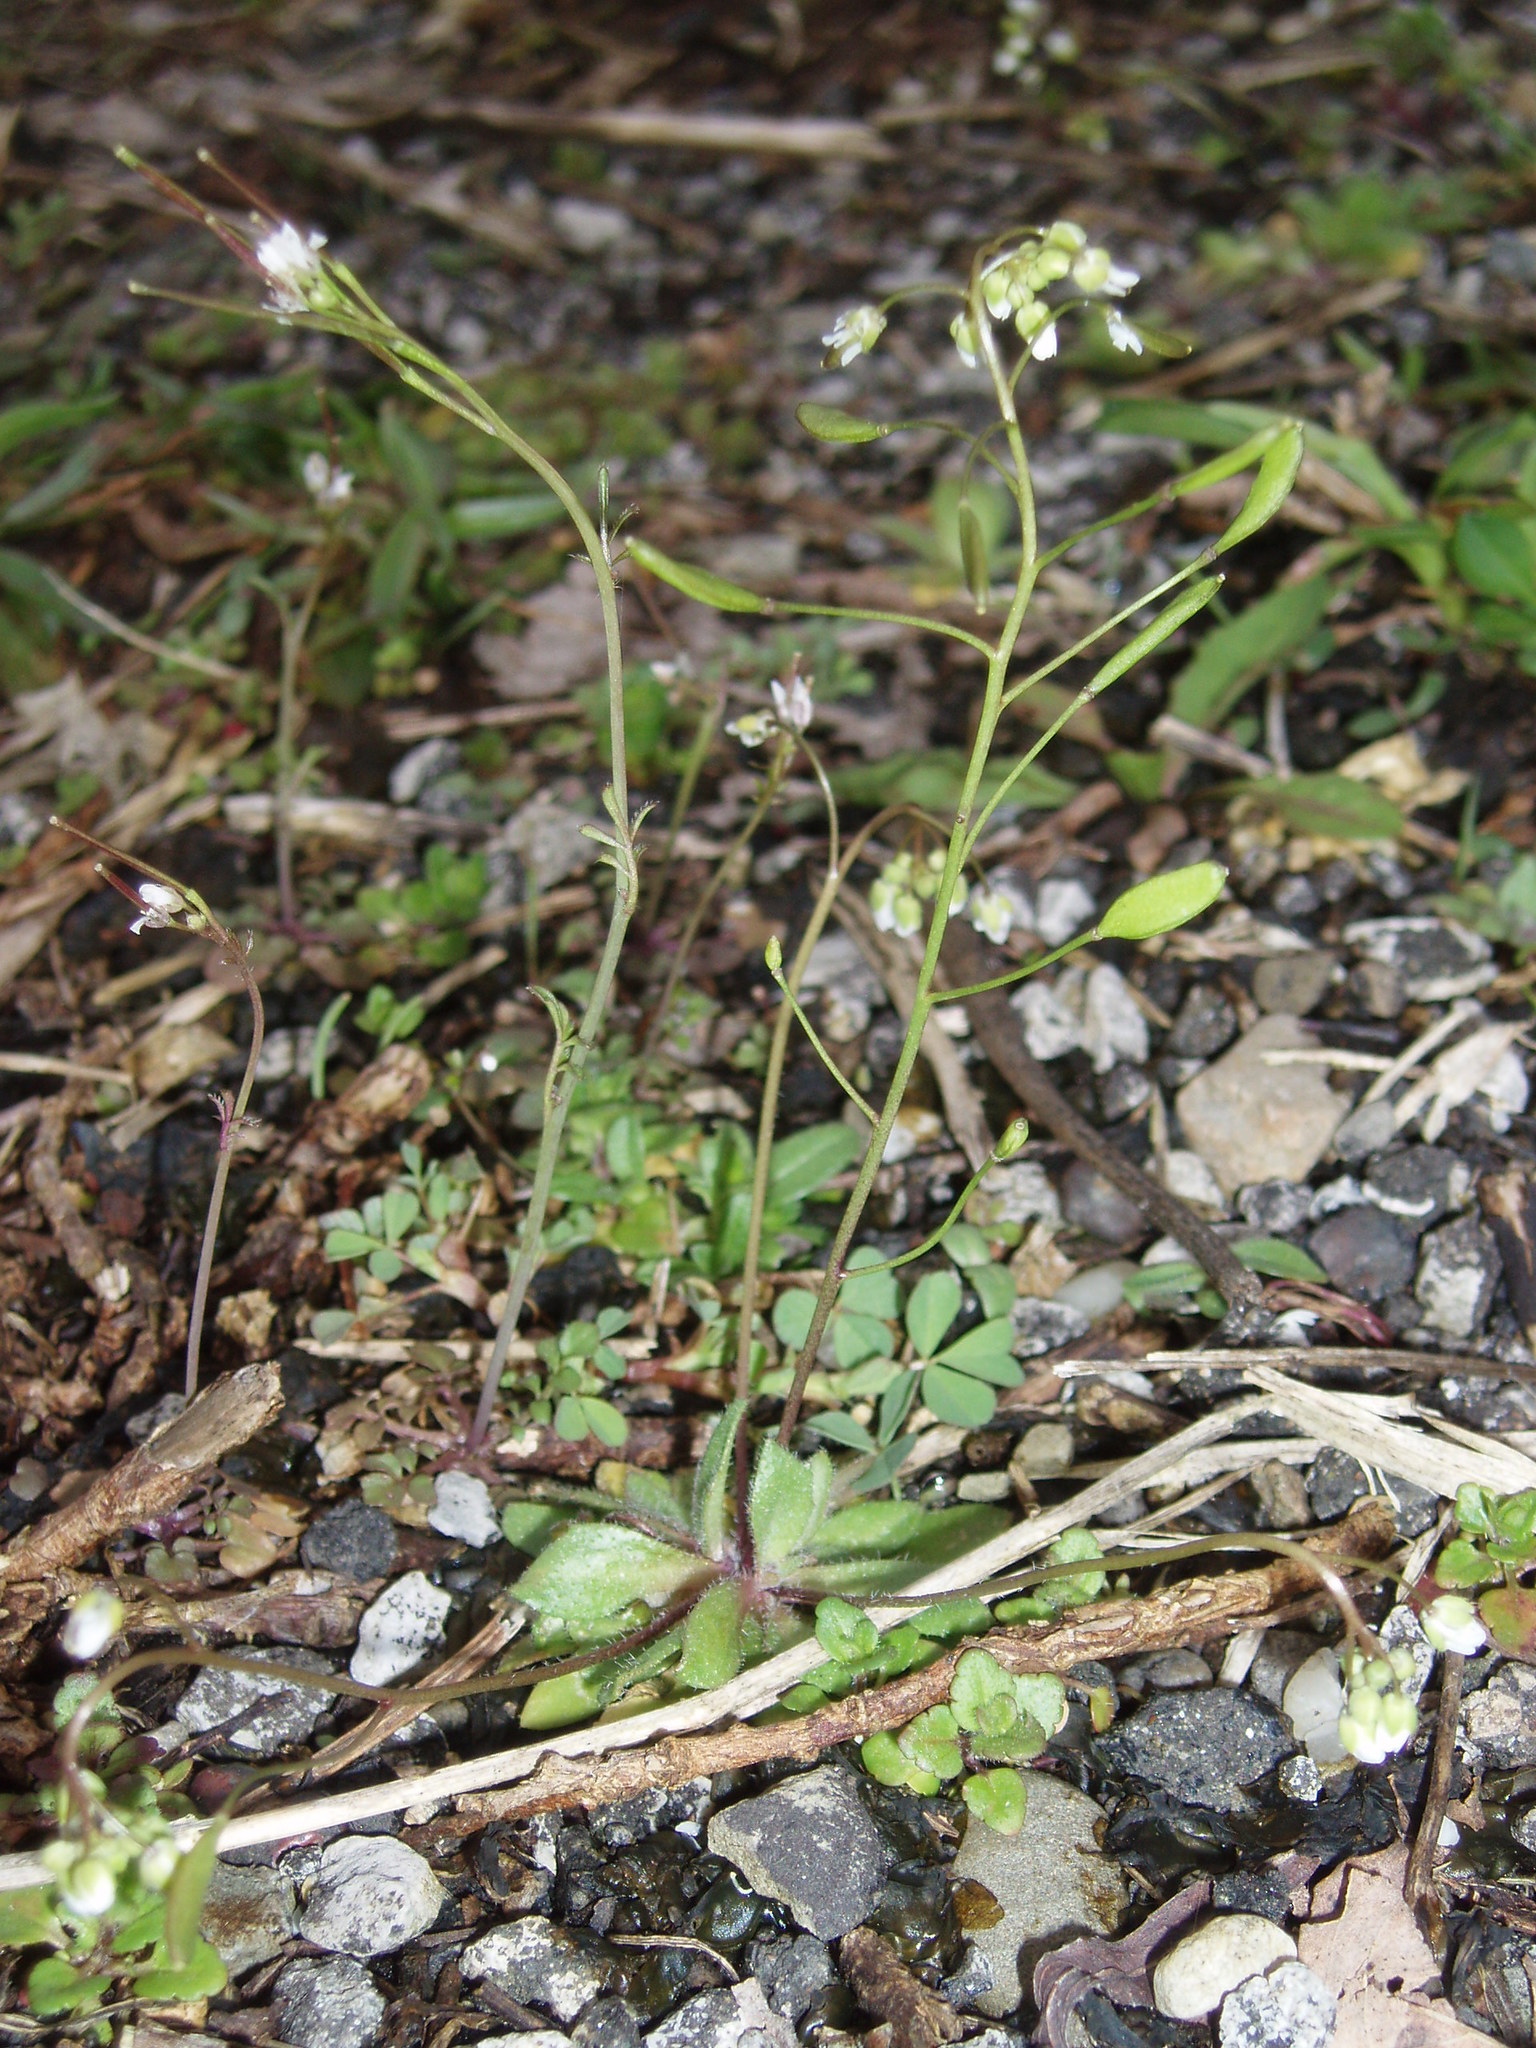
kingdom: Plantae
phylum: Tracheophyta
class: Magnoliopsida
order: Brassicales
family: Brassicaceae
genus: Draba
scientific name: Draba verna
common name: Spring draba
